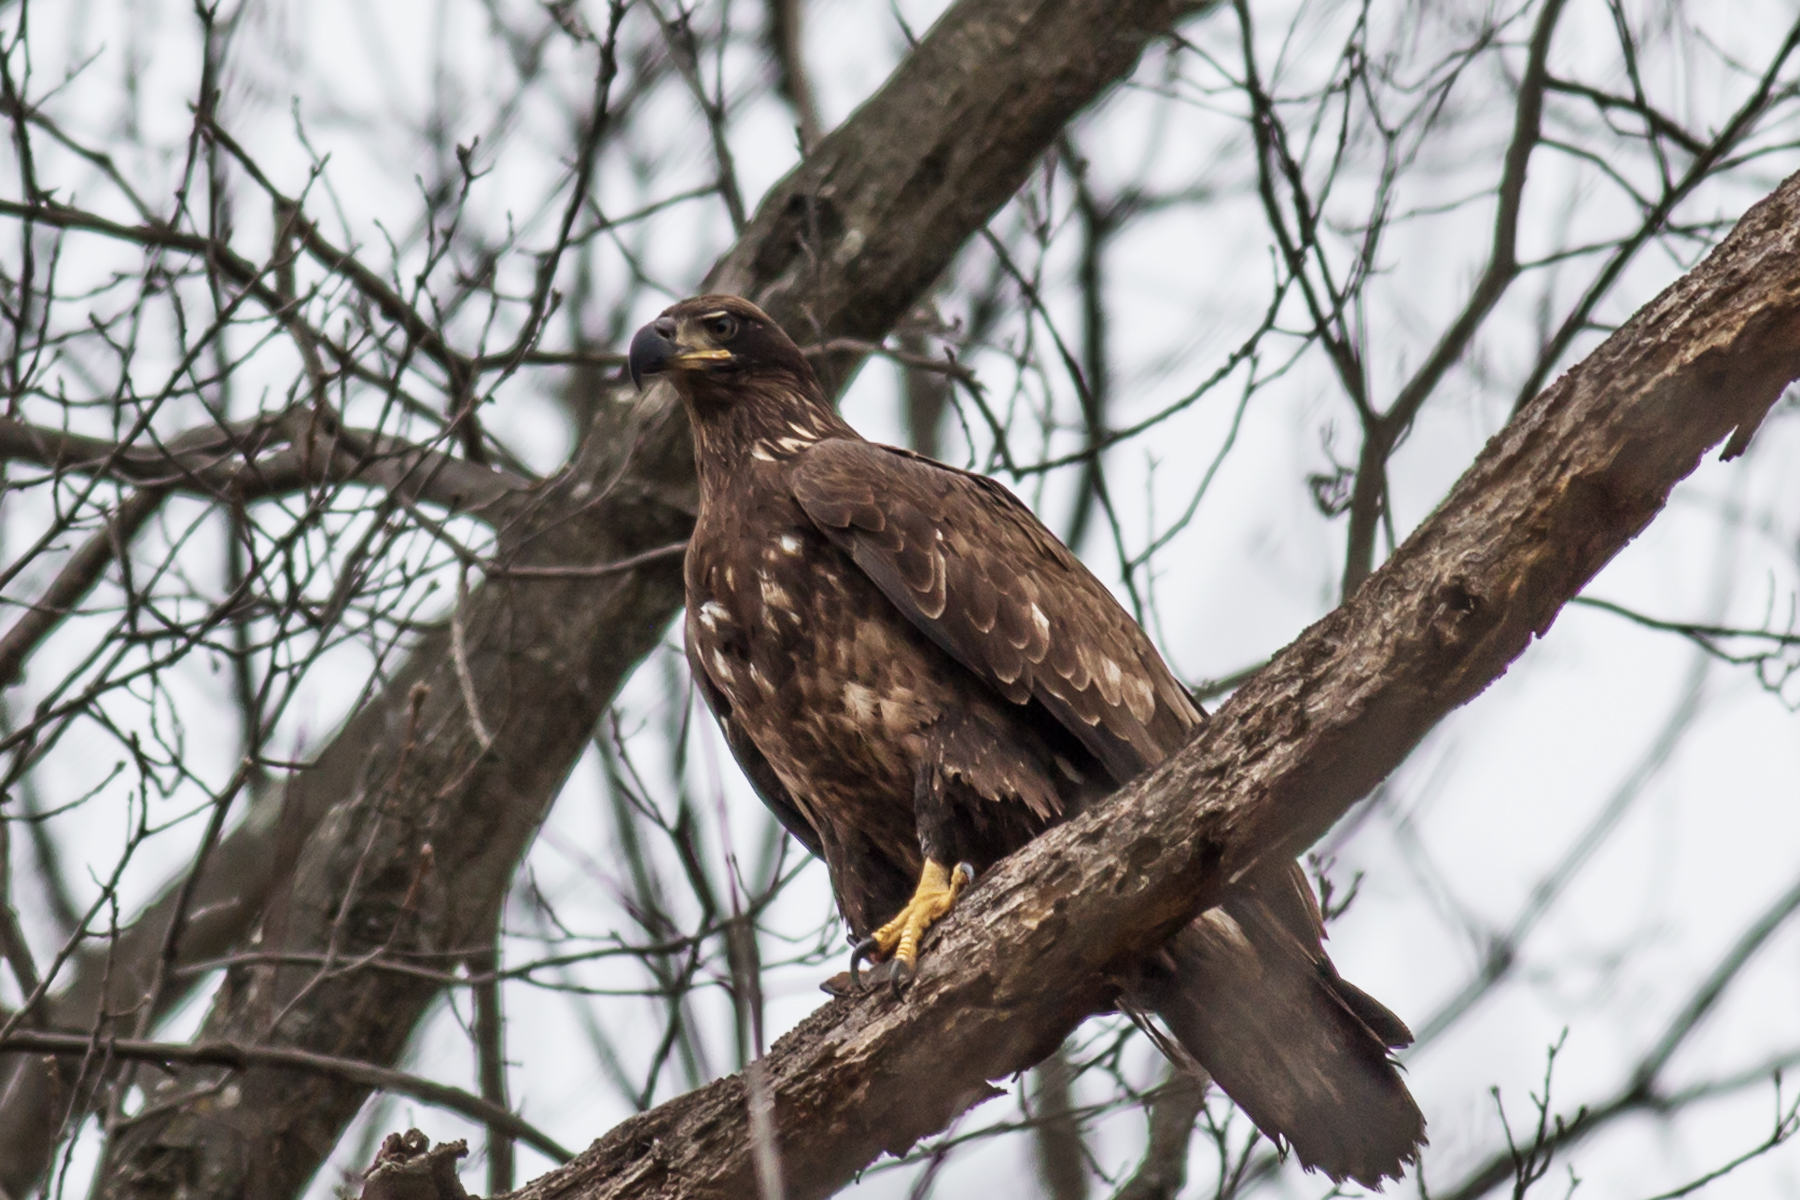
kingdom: Animalia
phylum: Chordata
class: Aves
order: Accipitriformes
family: Accipitridae
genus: Haliaeetus
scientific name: Haliaeetus leucocephalus
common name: Bald eagle
